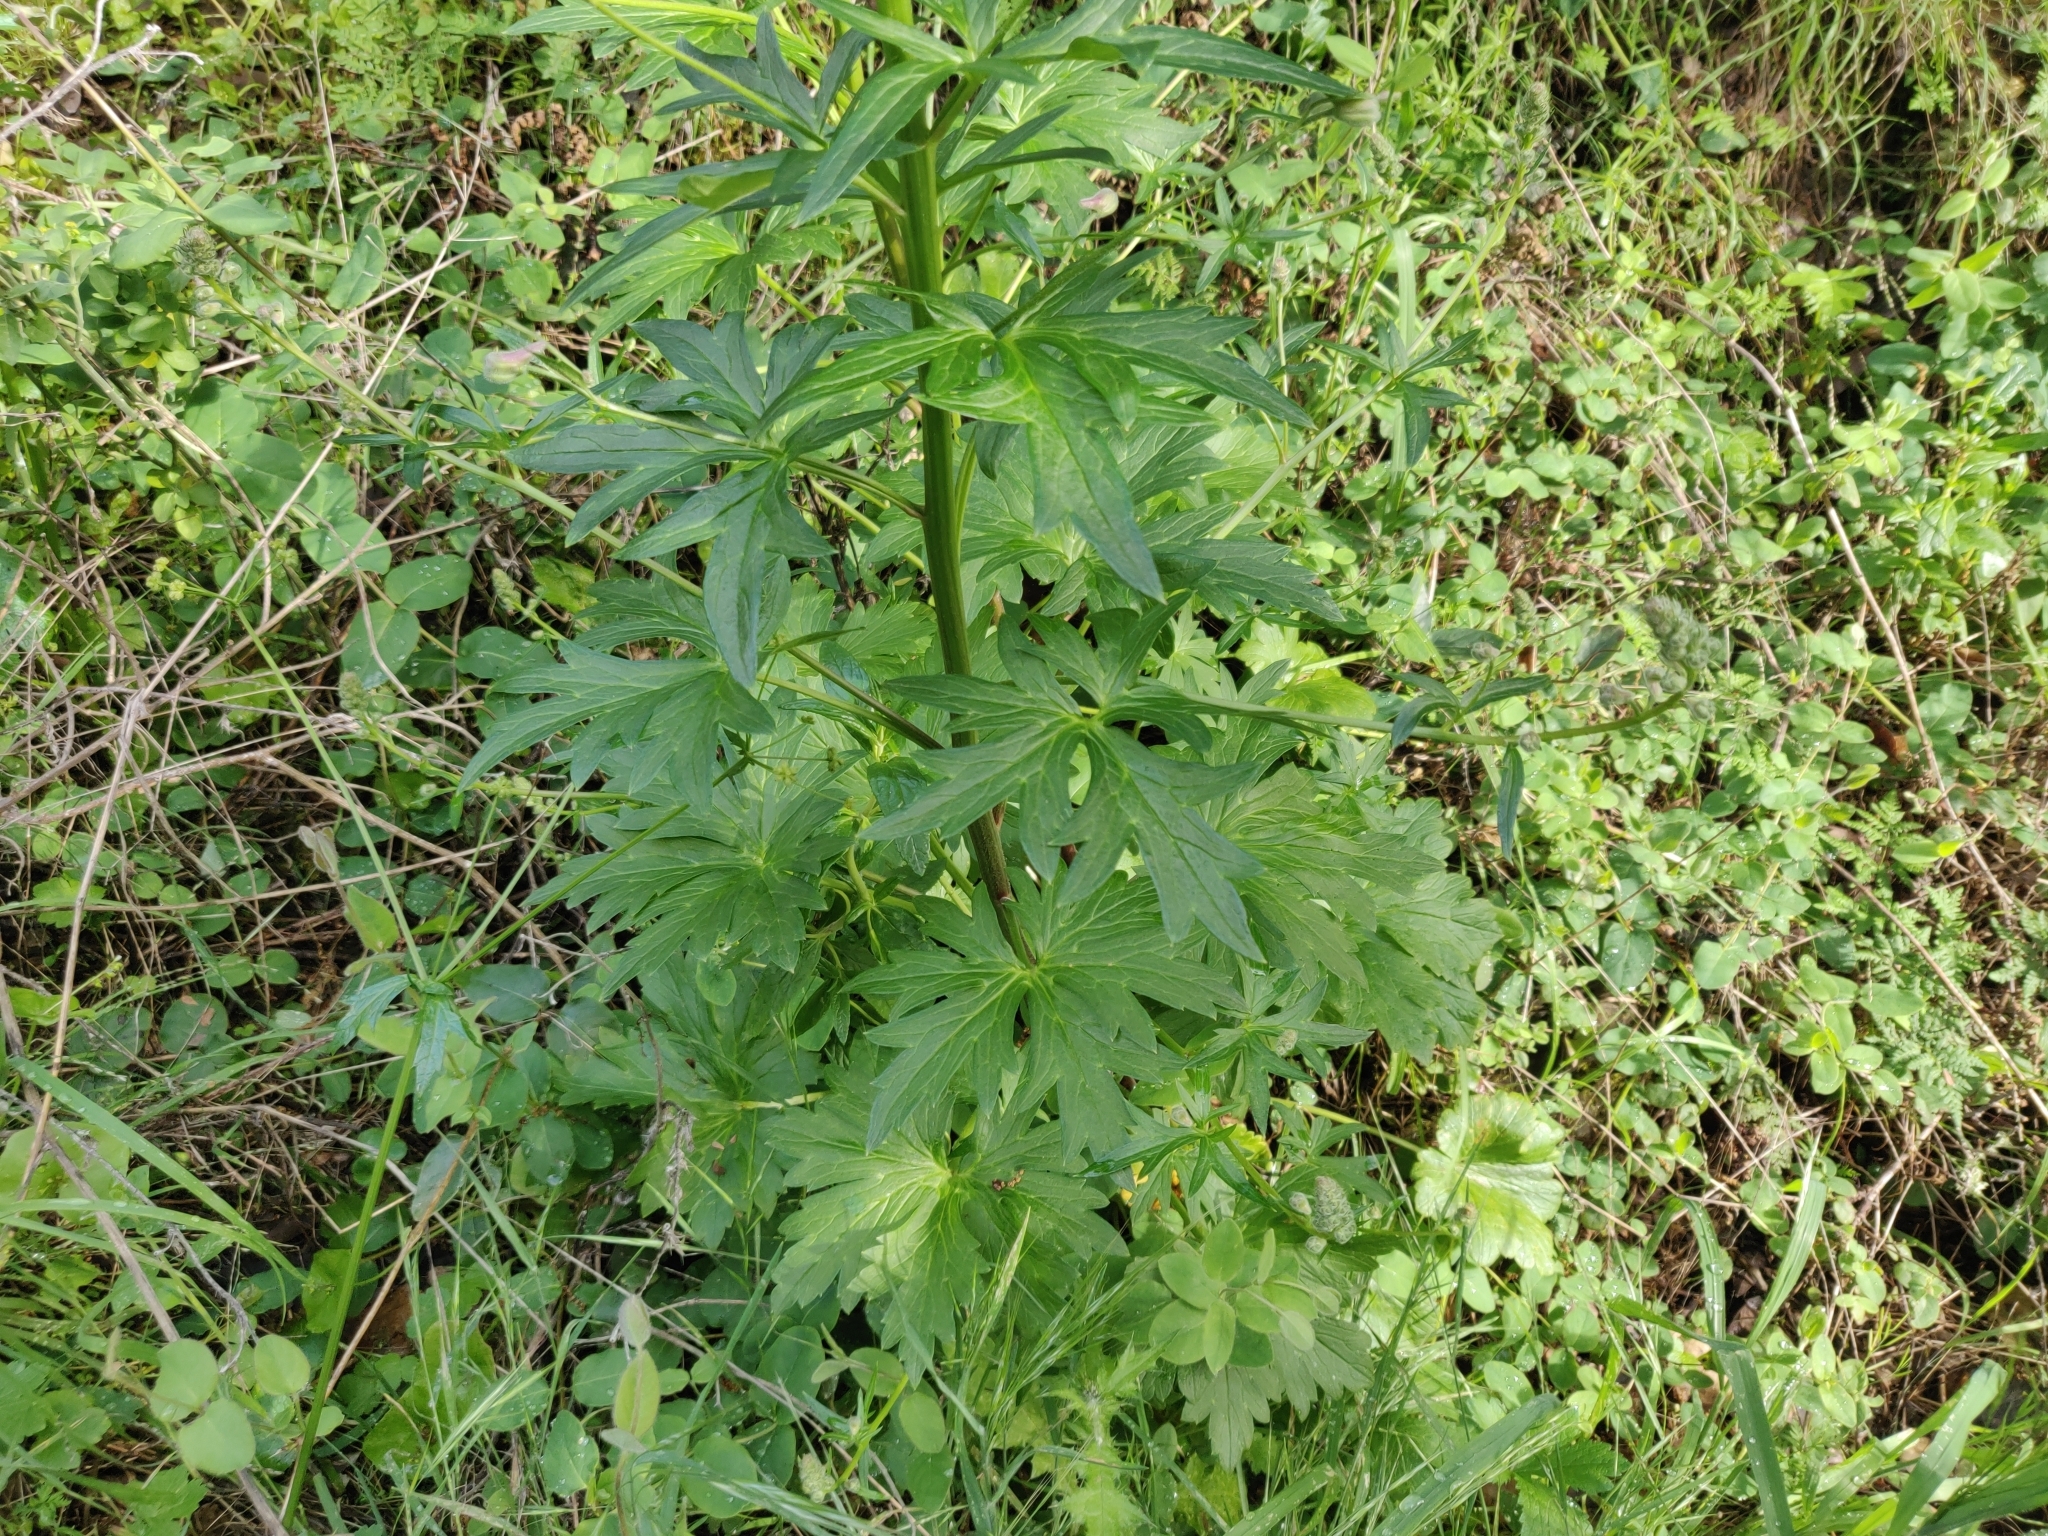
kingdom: Plantae
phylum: Tracheophyta
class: Magnoliopsida
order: Ranunculales
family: Ranunculaceae
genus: Delphinium
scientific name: Delphinium californicum
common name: California larkspur
